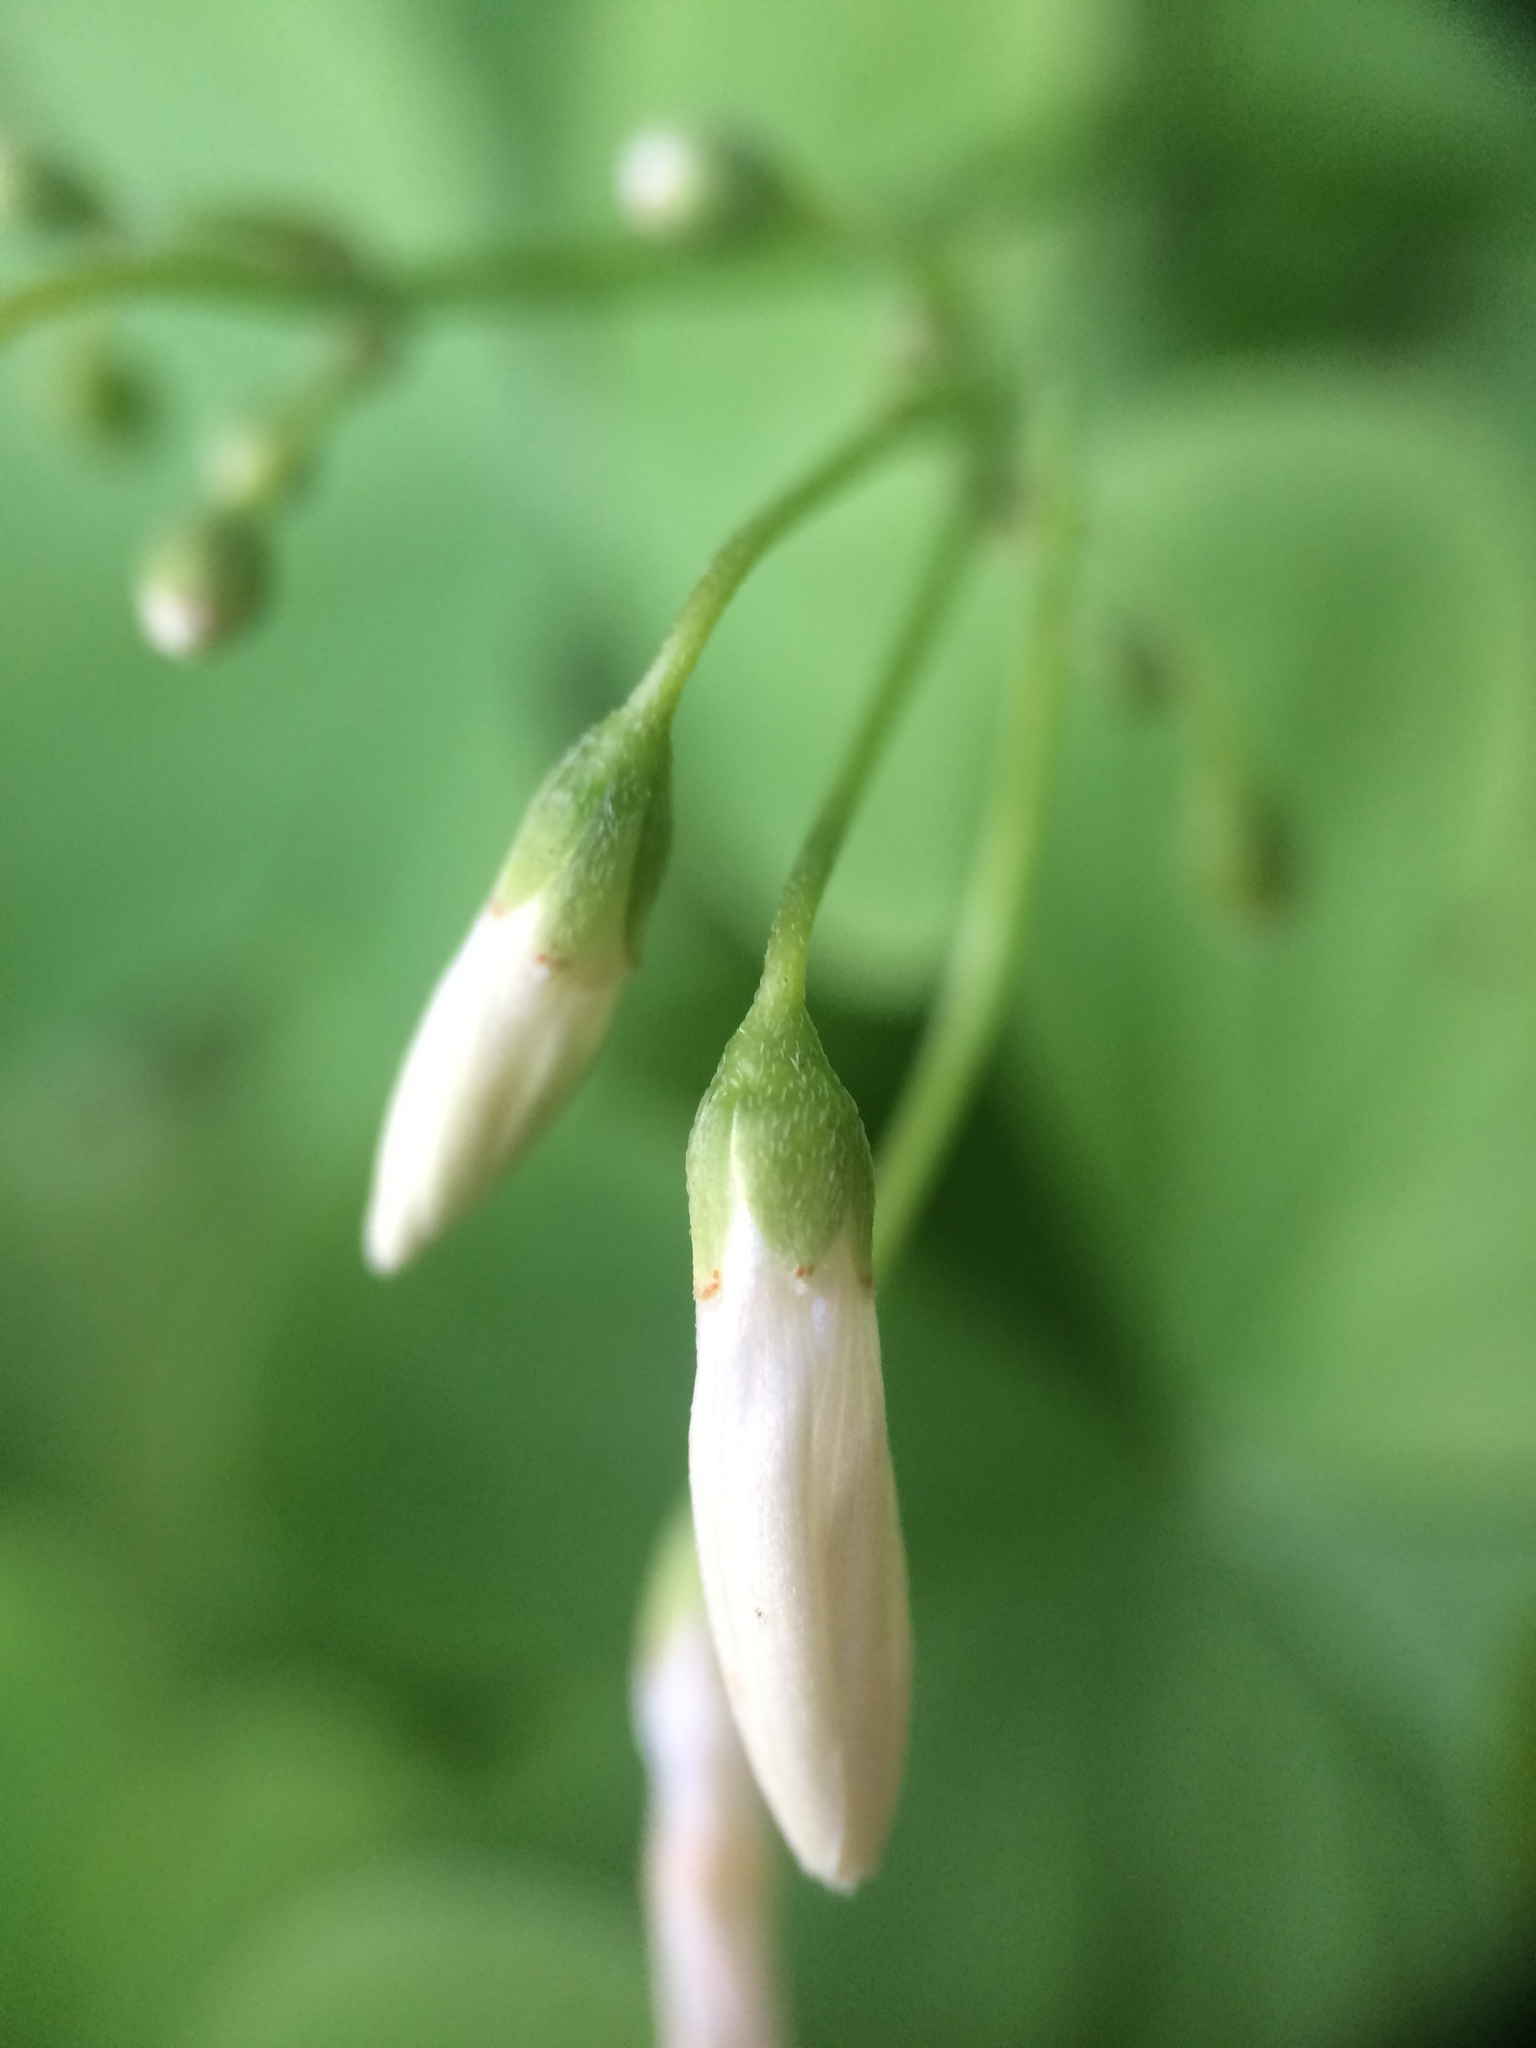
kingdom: Plantae
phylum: Tracheophyta
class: Magnoliopsida
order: Oxalidales
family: Oxalidaceae
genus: Oxalis
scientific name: Oxalis articulata
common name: Pink-sorrel
